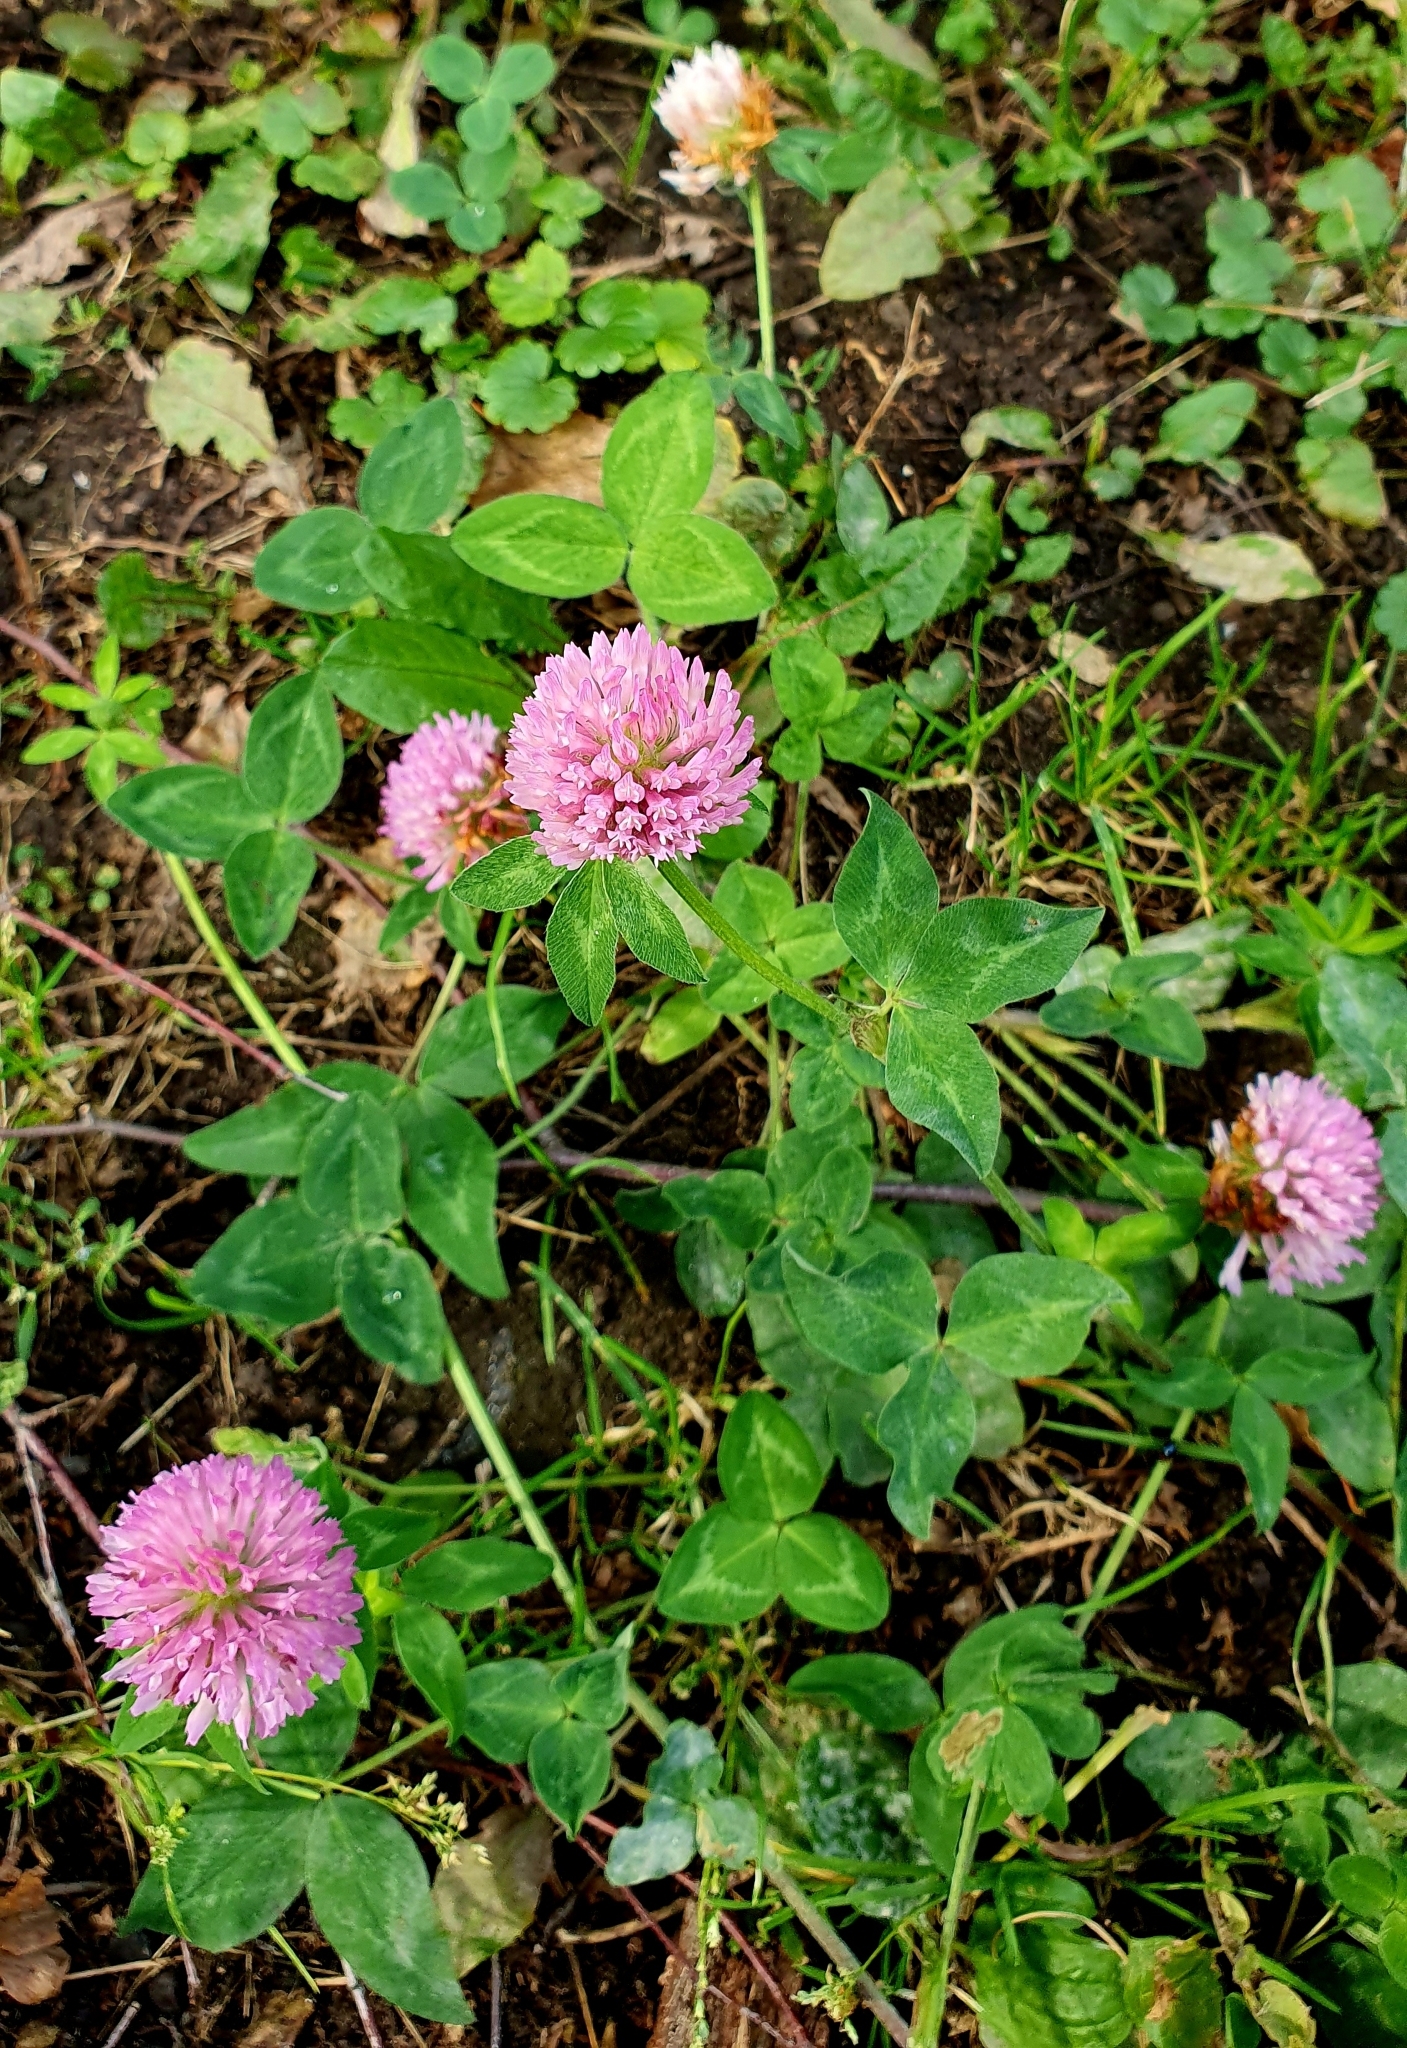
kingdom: Plantae
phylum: Tracheophyta
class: Magnoliopsida
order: Fabales
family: Fabaceae
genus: Trifolium
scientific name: Trifolium pratense
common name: Red clover
